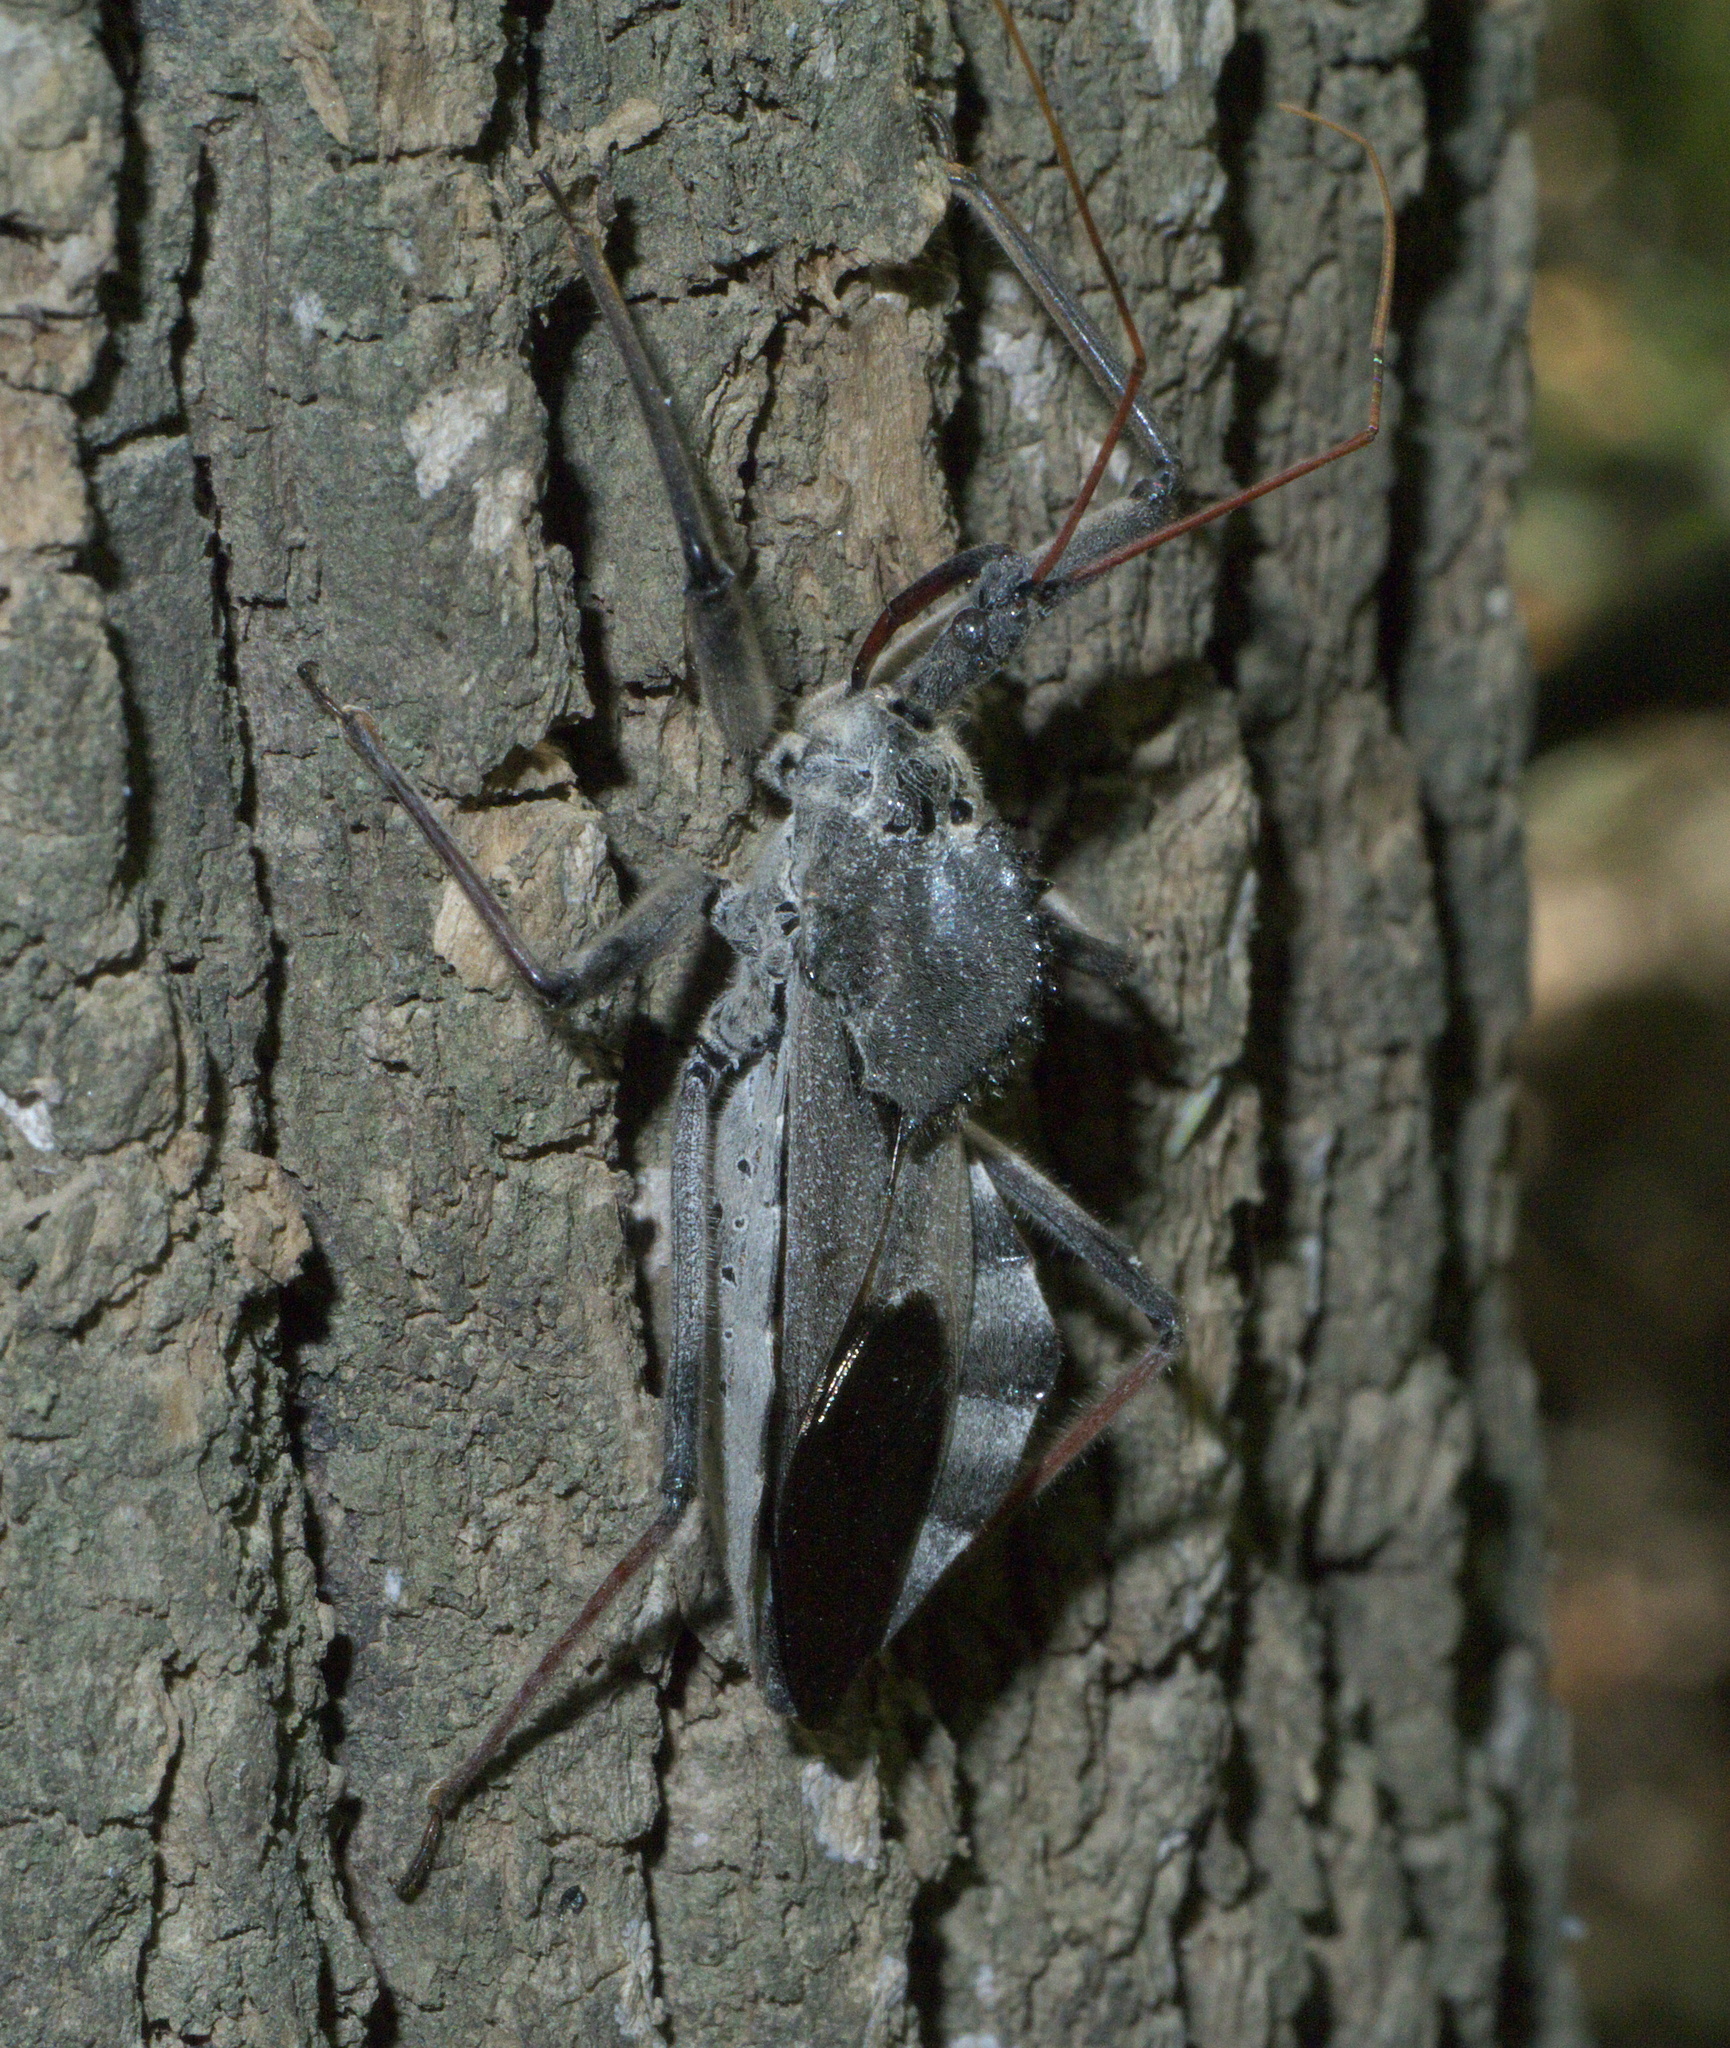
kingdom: Animalia
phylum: Arthropoda
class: Insecta
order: Hemiptera
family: Reduviidae
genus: Arilus
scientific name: Arilus cristatus
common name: North american wheel bug
